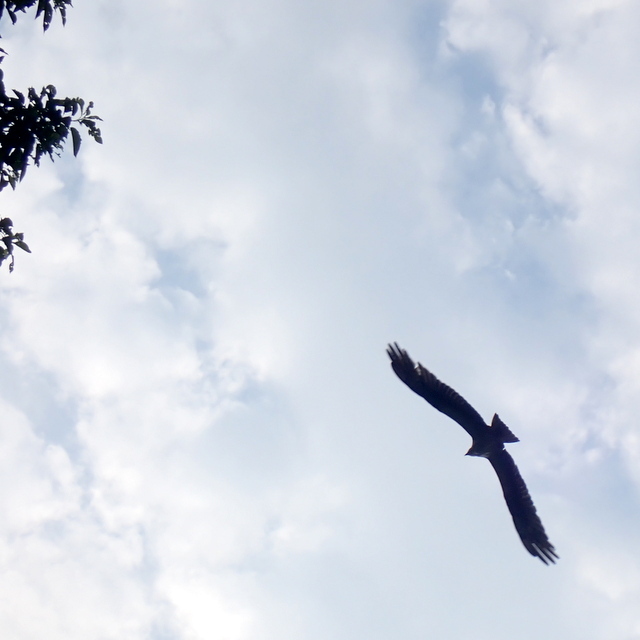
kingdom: Animalia
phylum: Chordata
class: Aves
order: Accipitriformes
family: Pandionidae
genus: Pandion
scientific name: Pandion haliaetus
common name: Osprey
